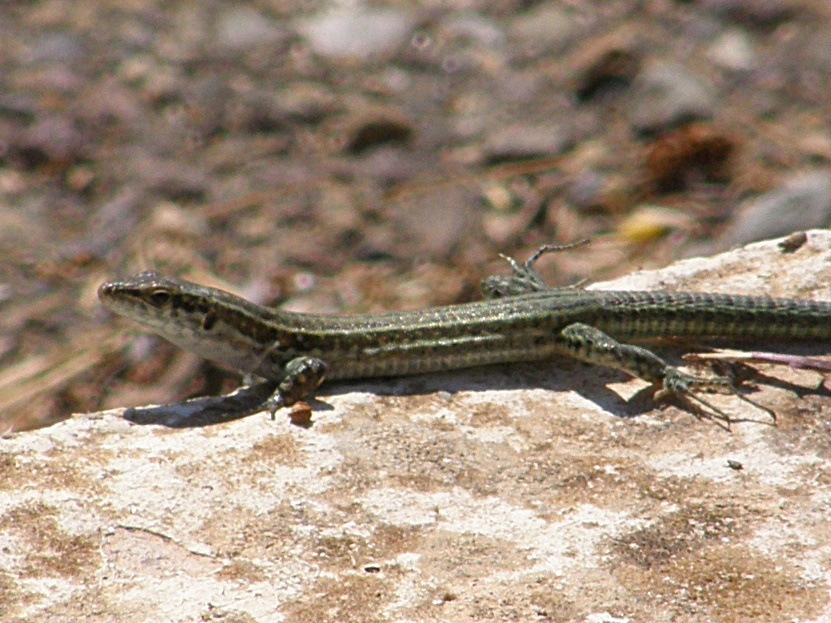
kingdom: Animalia
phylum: Chordata
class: Squamata
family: Lacertidae
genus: Podarcis
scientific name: Podarcis tiliguerta
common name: Tyrrhenian wall lizard
